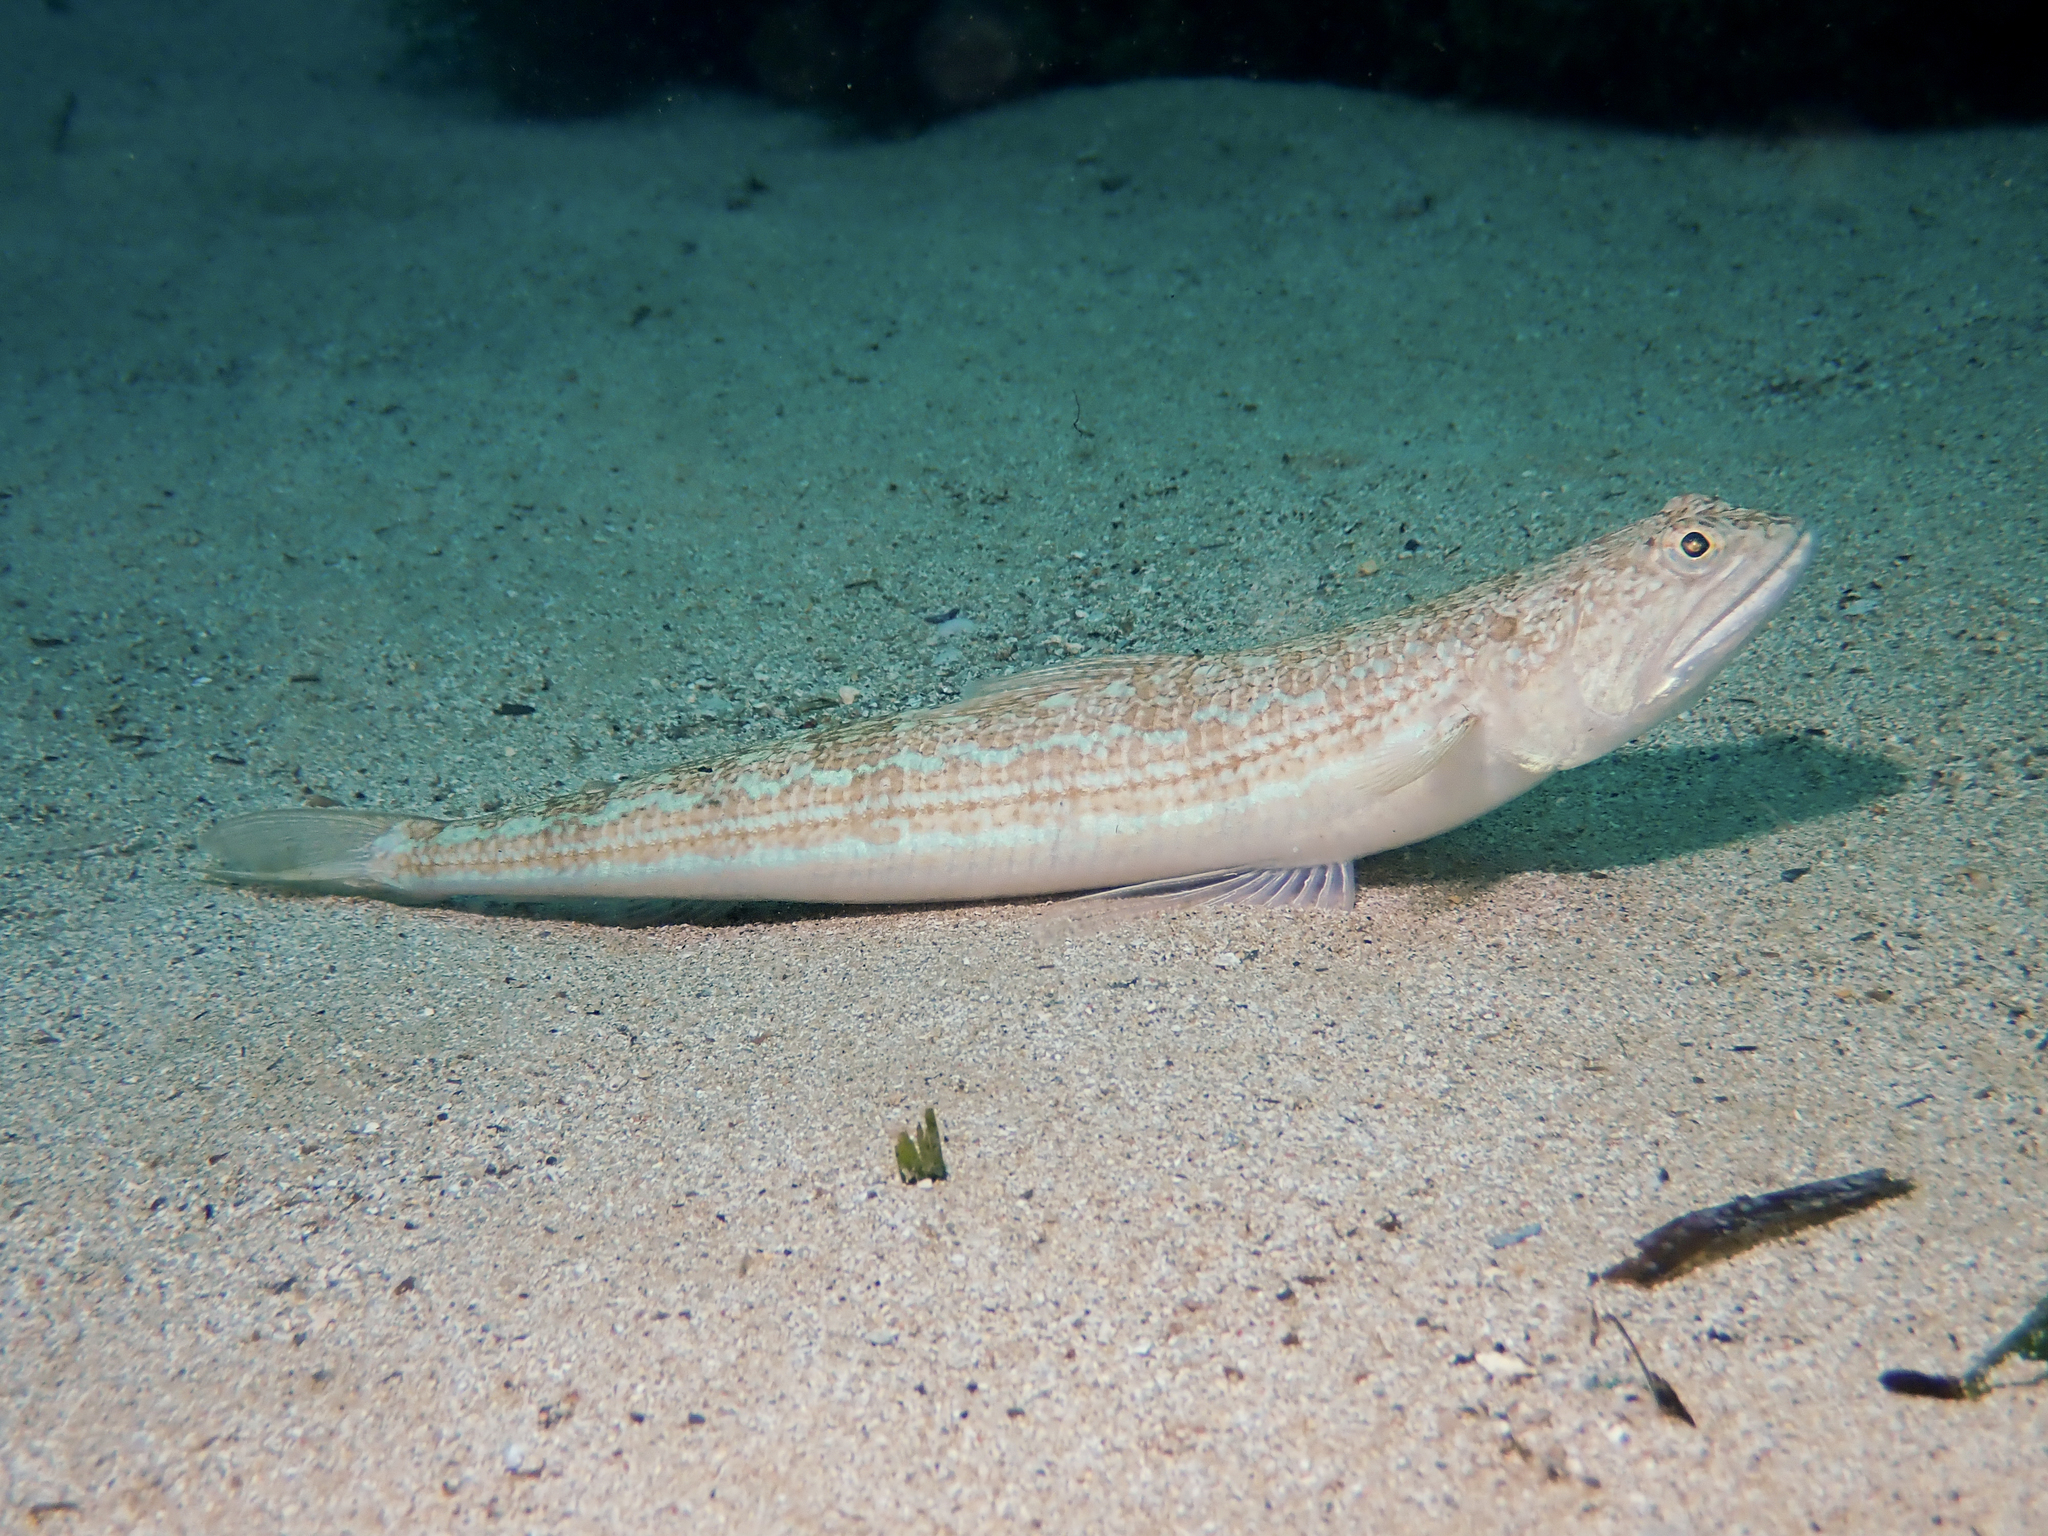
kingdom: Animalia
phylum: Chordata
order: Aulopiformes
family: Synodontidae
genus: Synodus
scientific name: Synodus saurus
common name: Atlantic lizardfish
